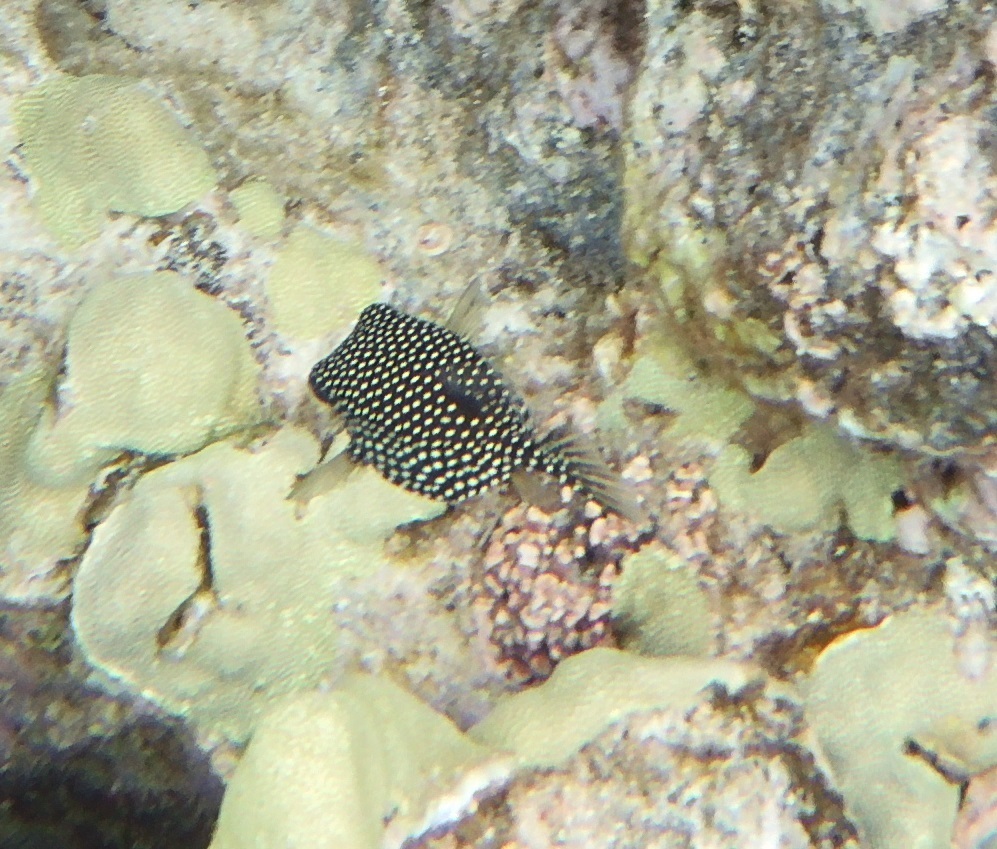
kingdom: Animalia
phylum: Chordata
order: Tetraodontiformes
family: Ostraciidae
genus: Ostracion
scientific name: Ostracion meleagris
